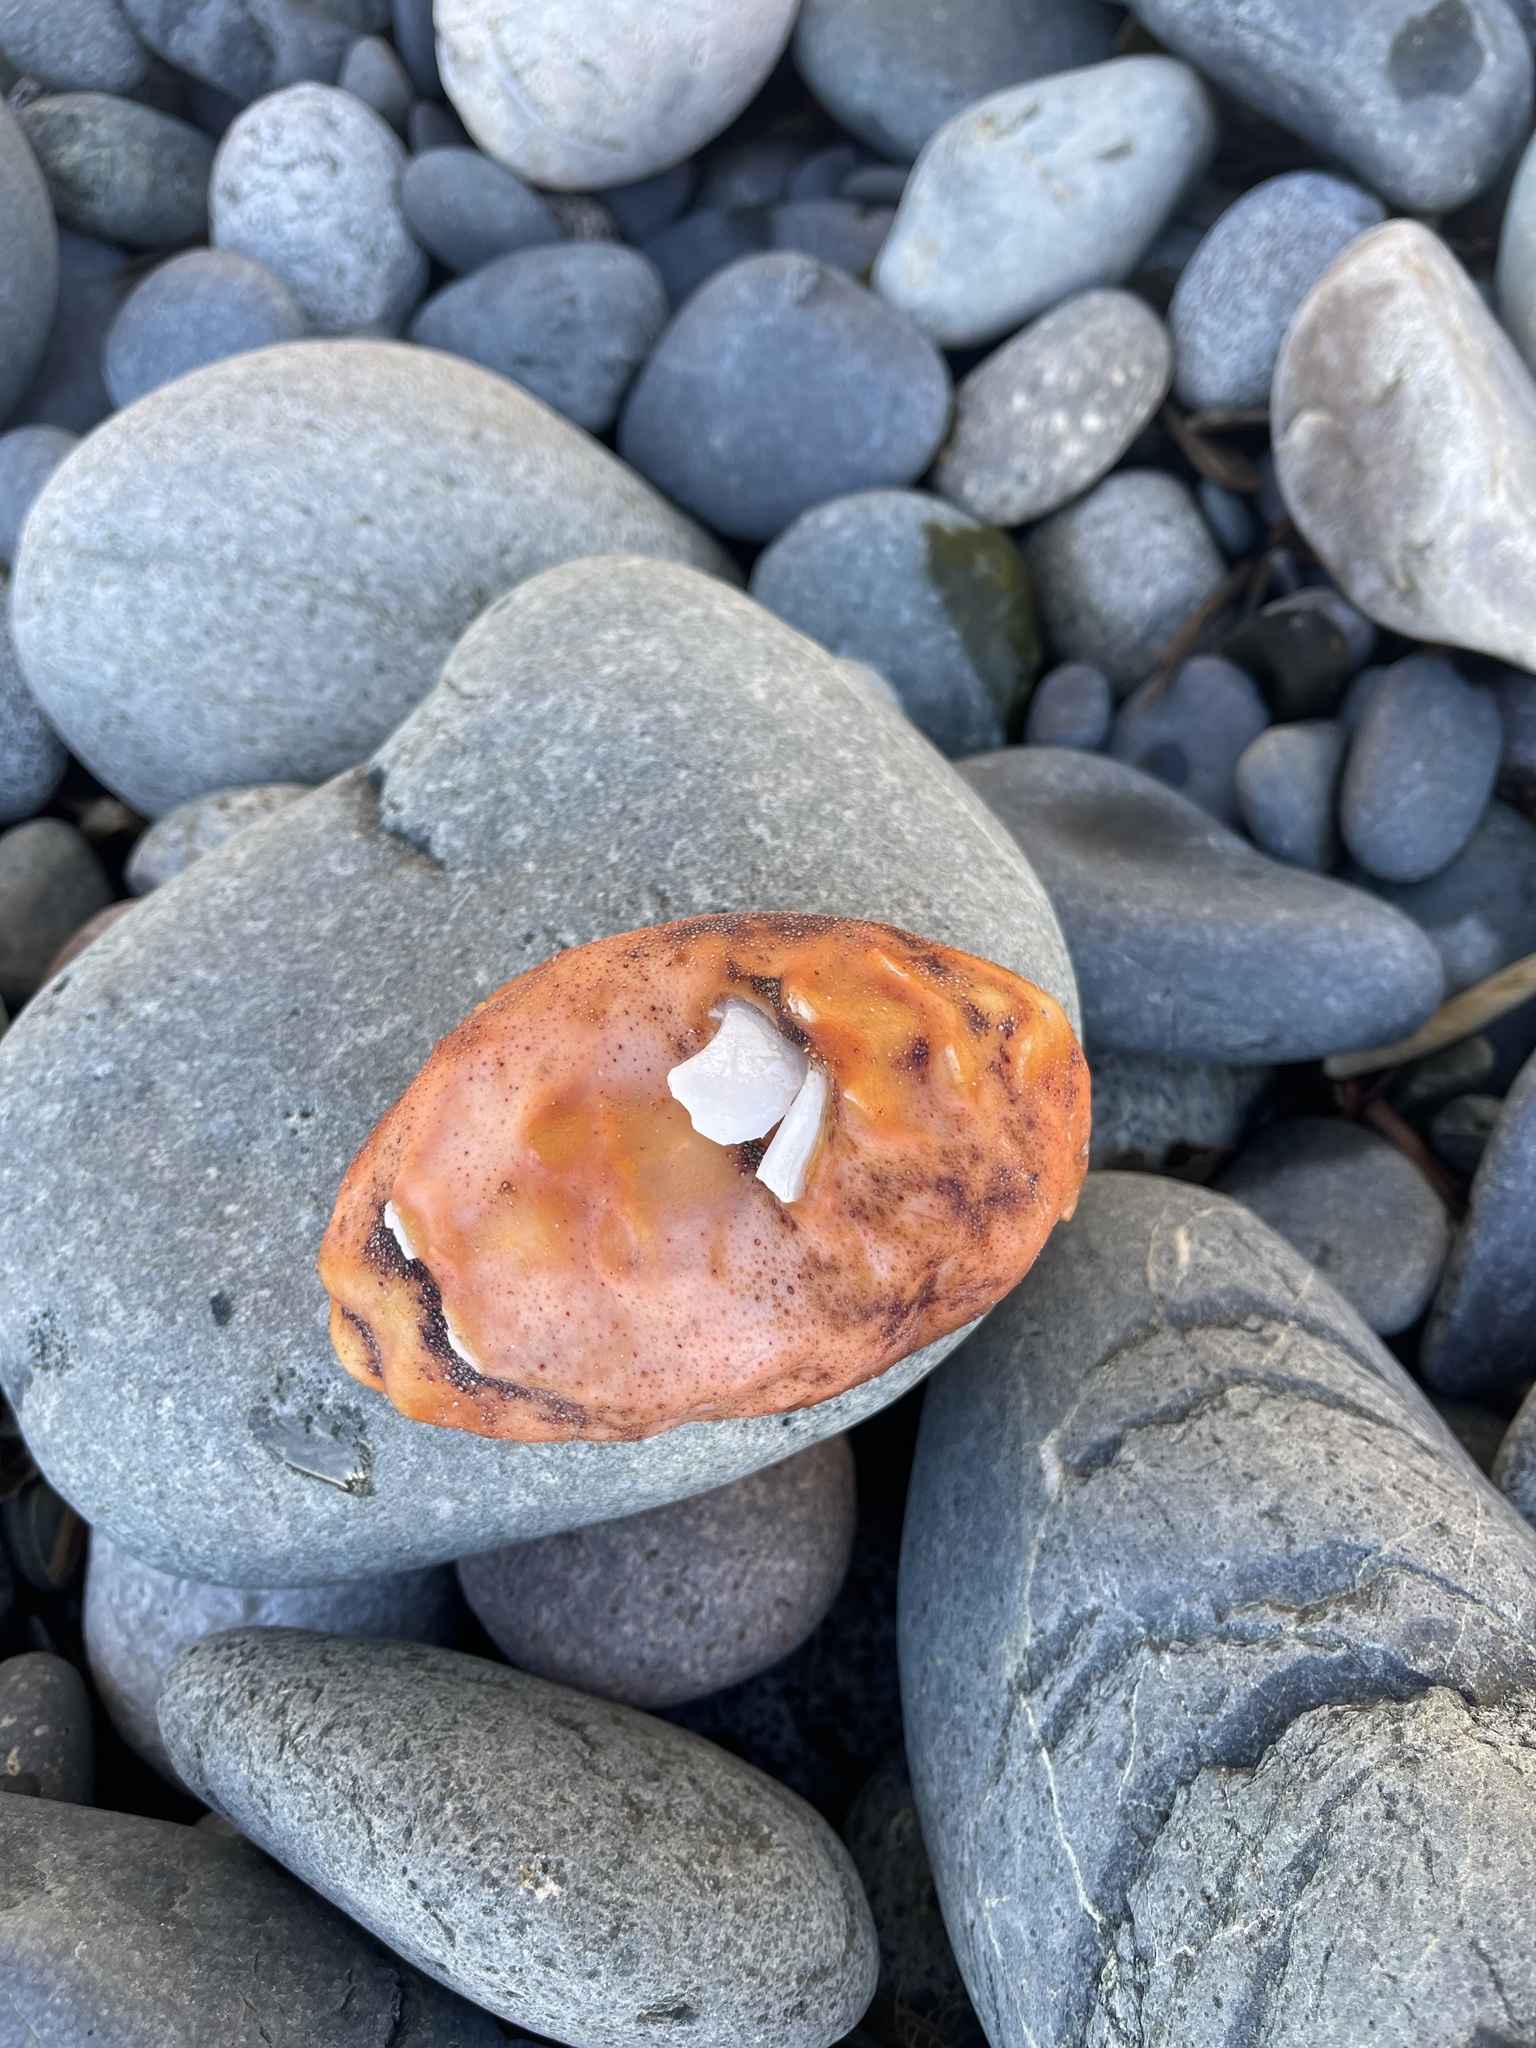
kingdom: Animalia
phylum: Mollusca
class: Polyplacophora
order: Chitonida
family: Acanthochitonidae
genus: Cryptochiton
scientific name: Cryptochiton stelleri
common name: Giant pacific chiton
